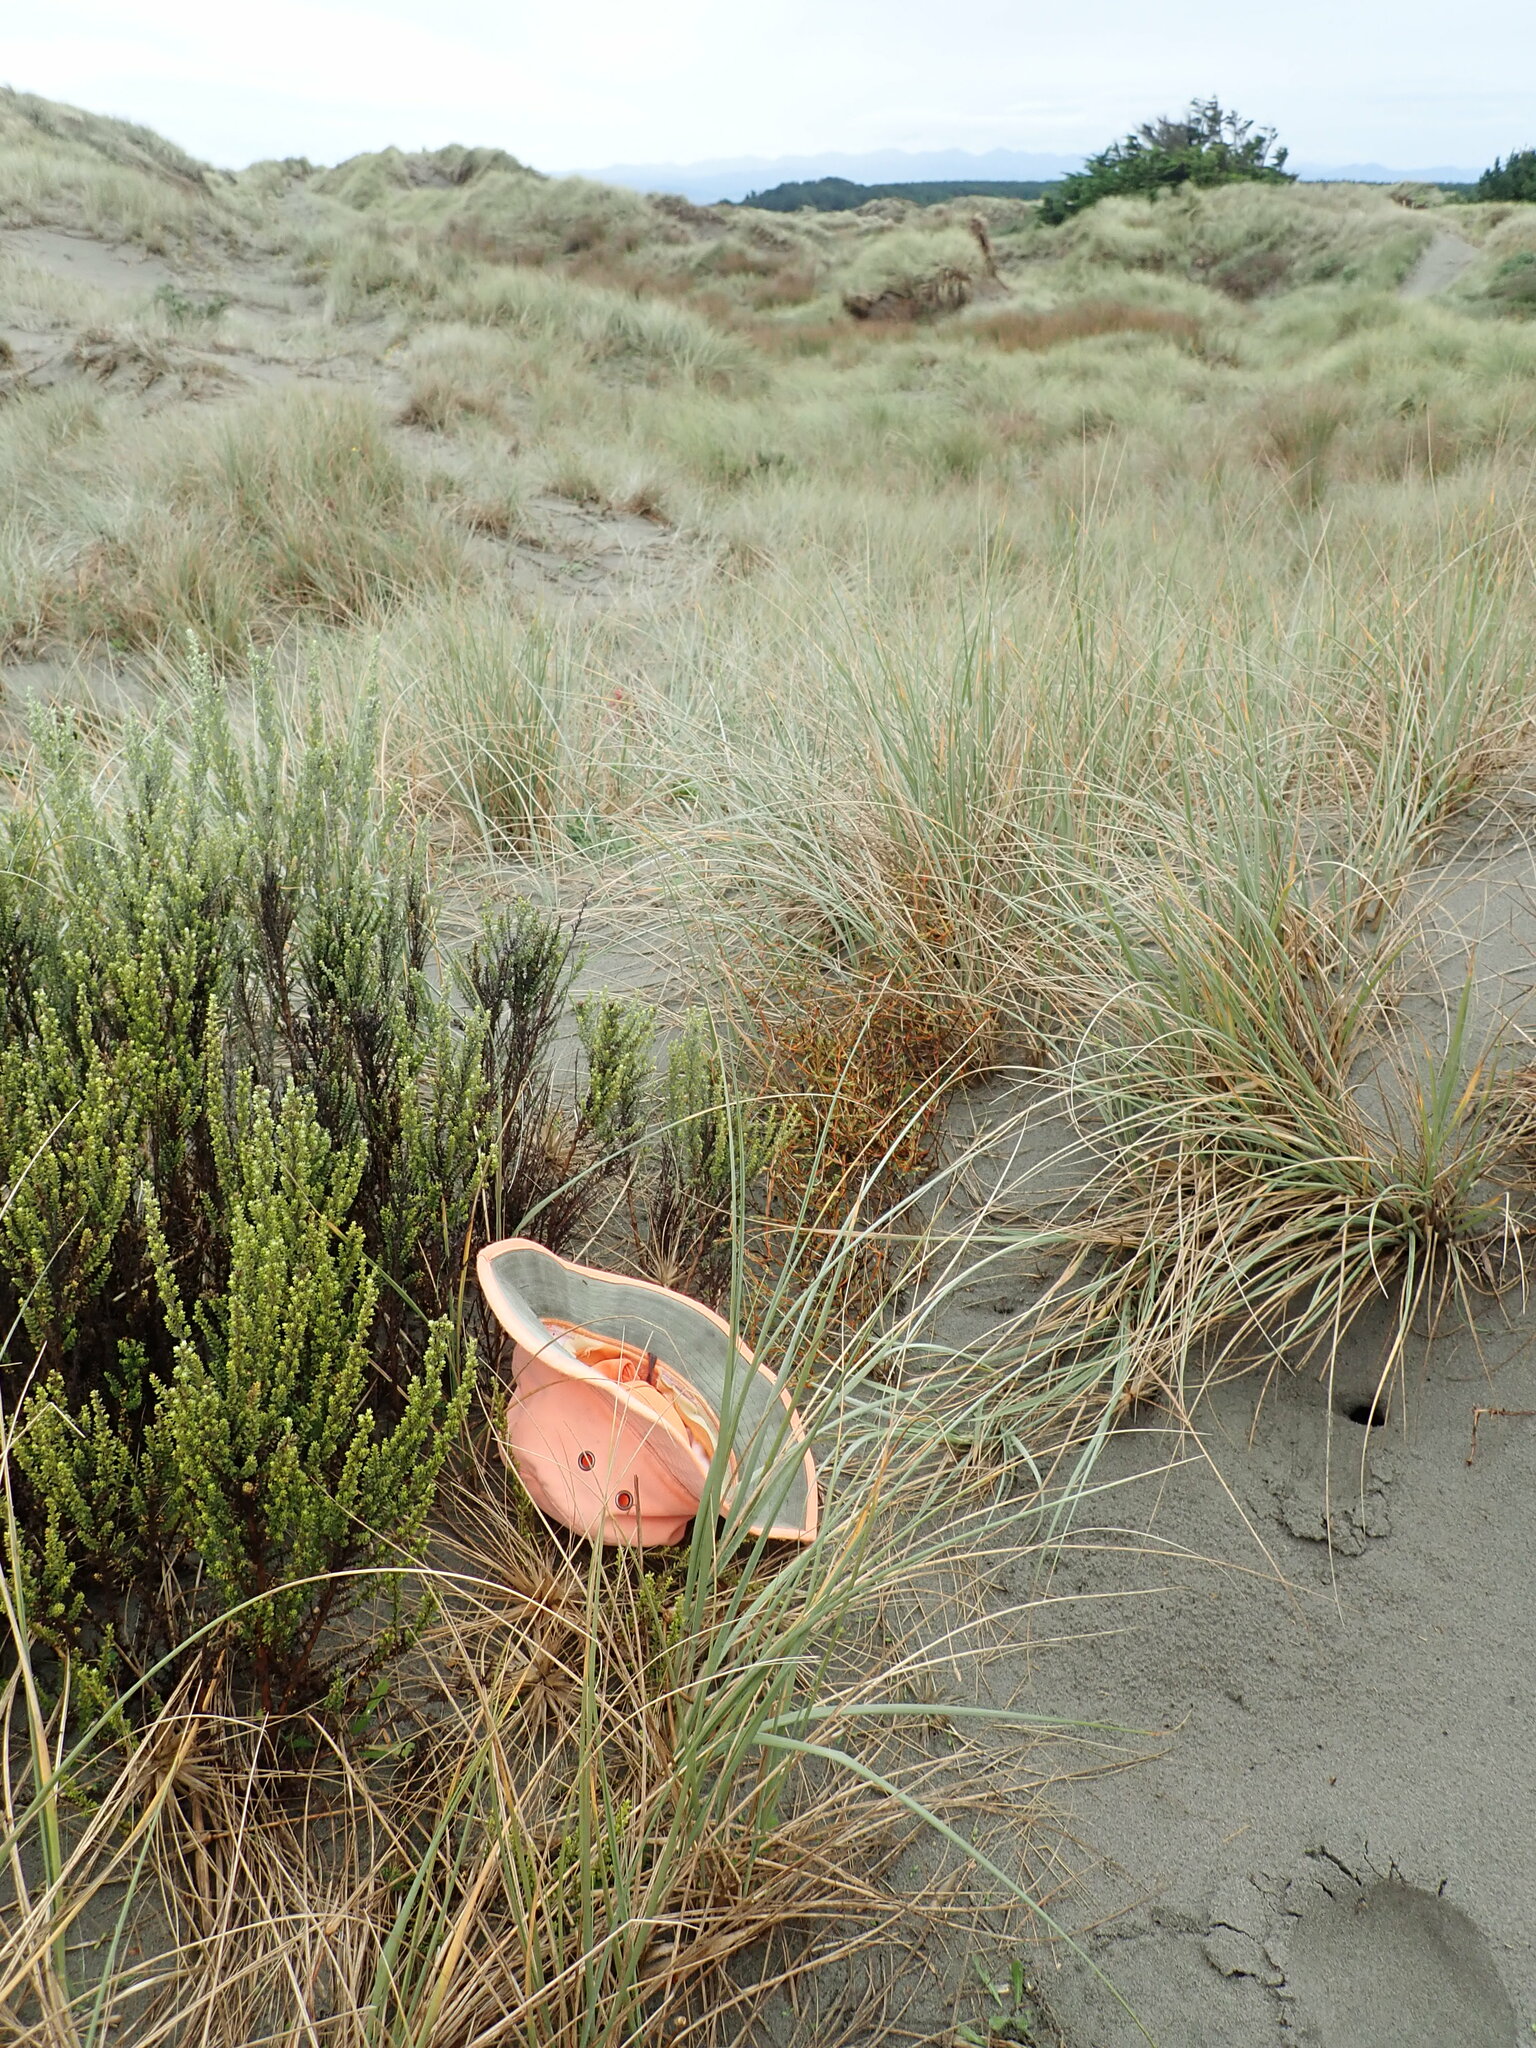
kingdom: Plantae
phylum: Tracheophyta
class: Magnoliopsida
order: Gentianales
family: Rubiaceae
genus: Coprosma
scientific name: Coprosma acerosa
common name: Sand coprosma
